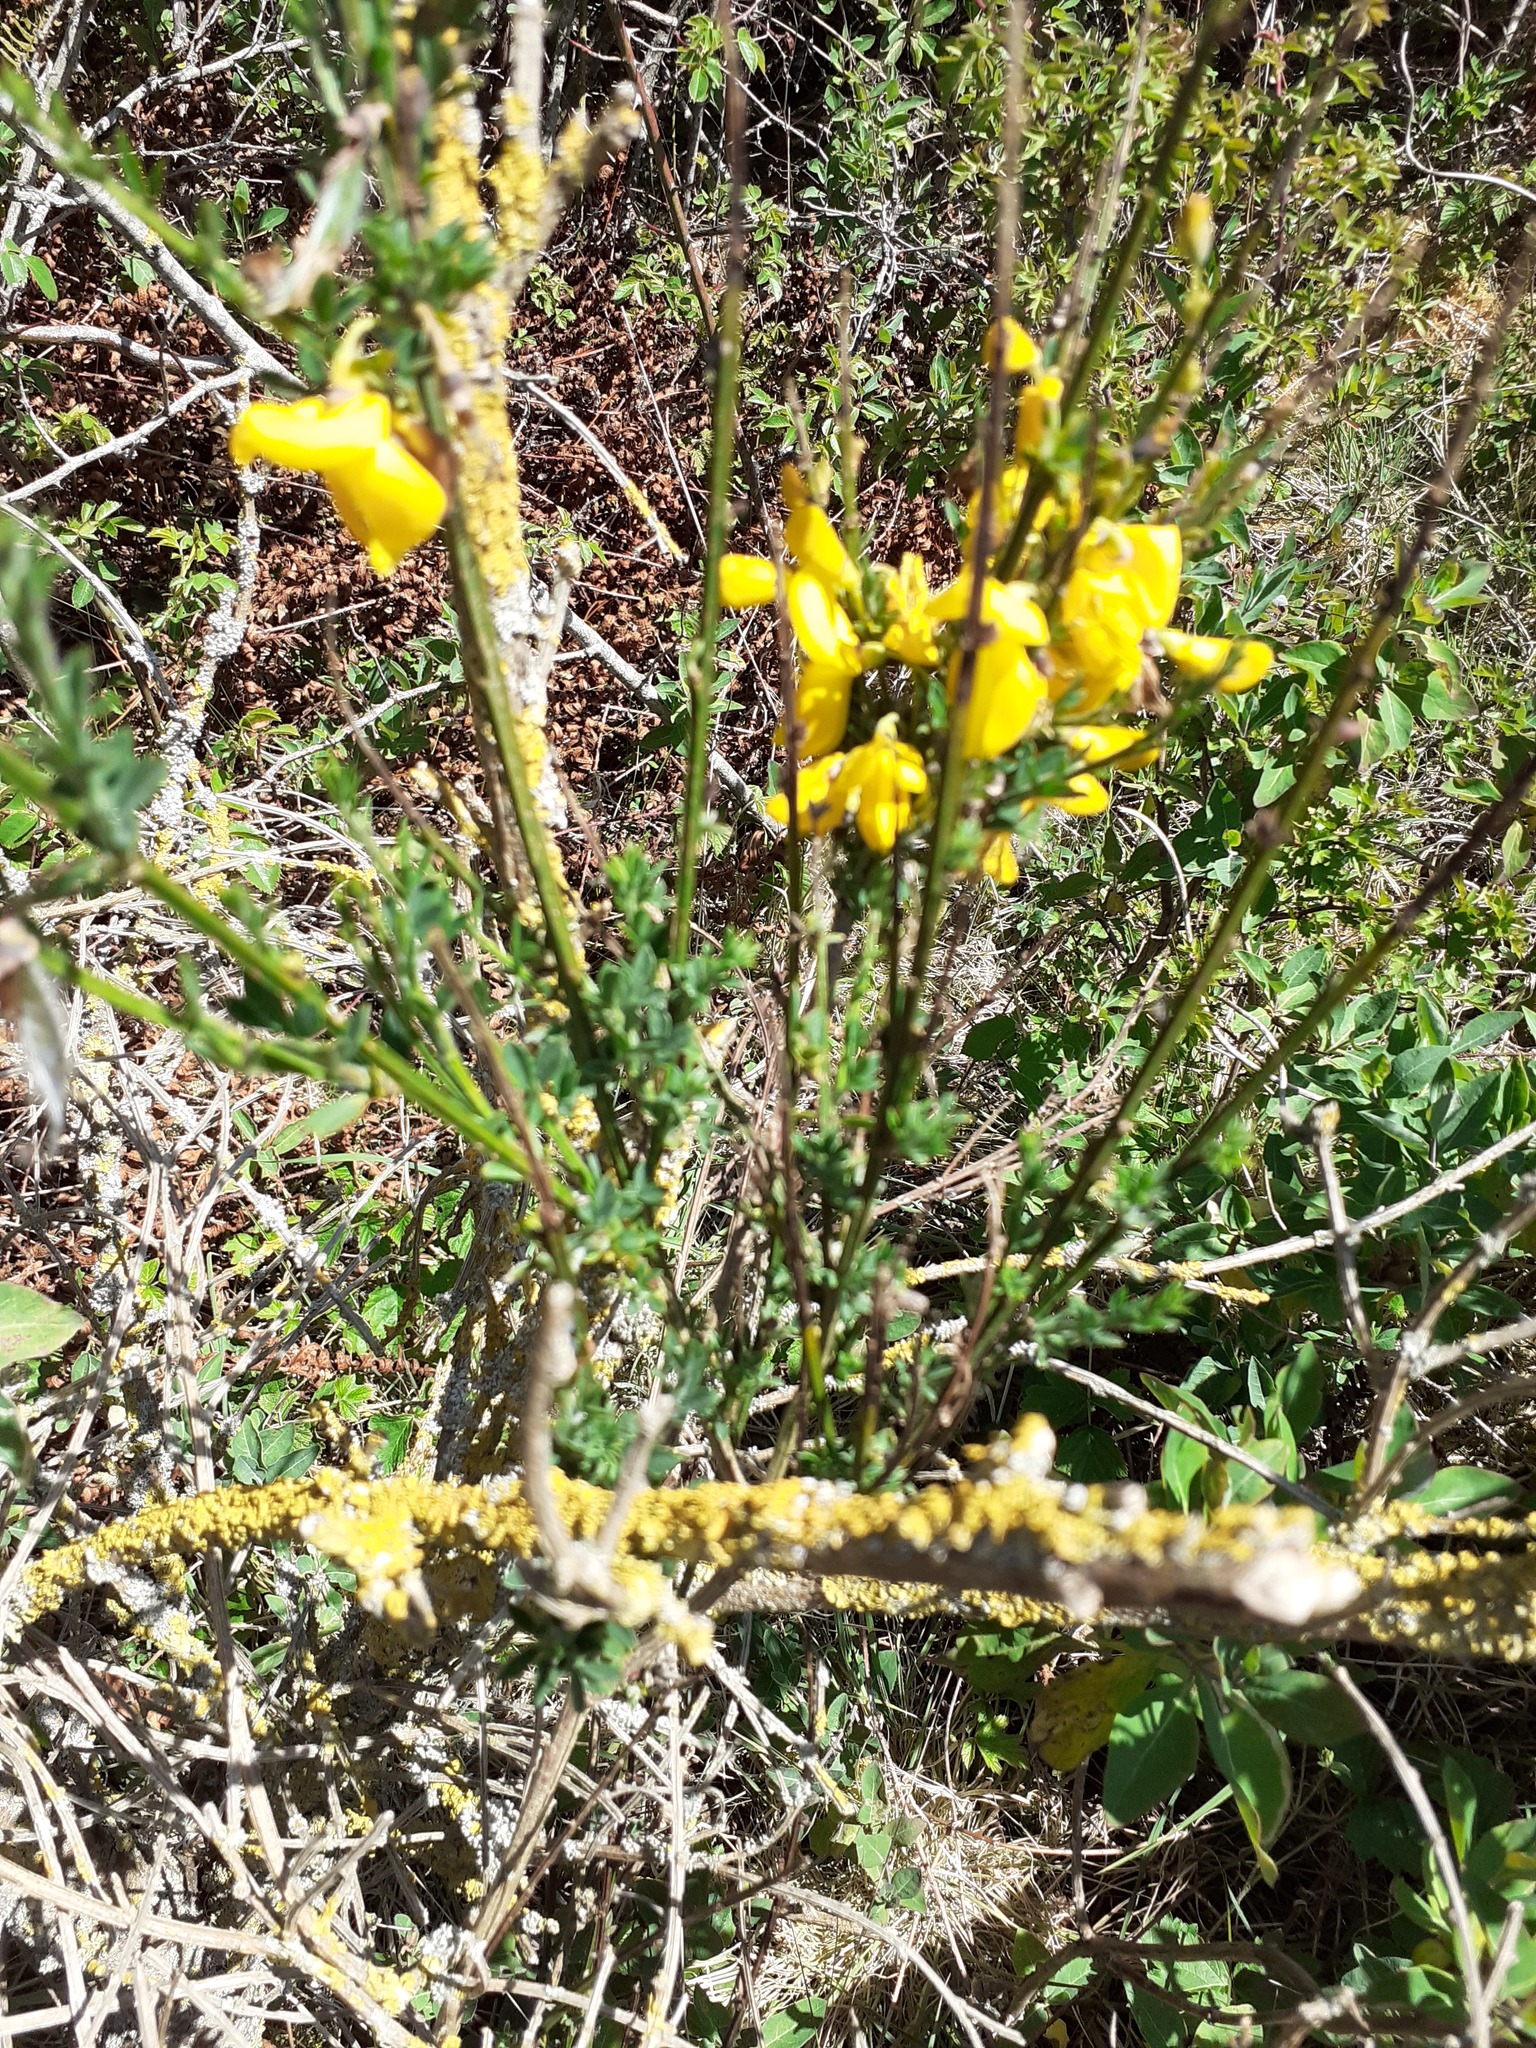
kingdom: Plantae
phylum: Tracheophyta
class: Magnoliopsida
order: Fabales
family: Fabaceae
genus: Cytisus
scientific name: Cytisus scoparius
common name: Scotch broom
